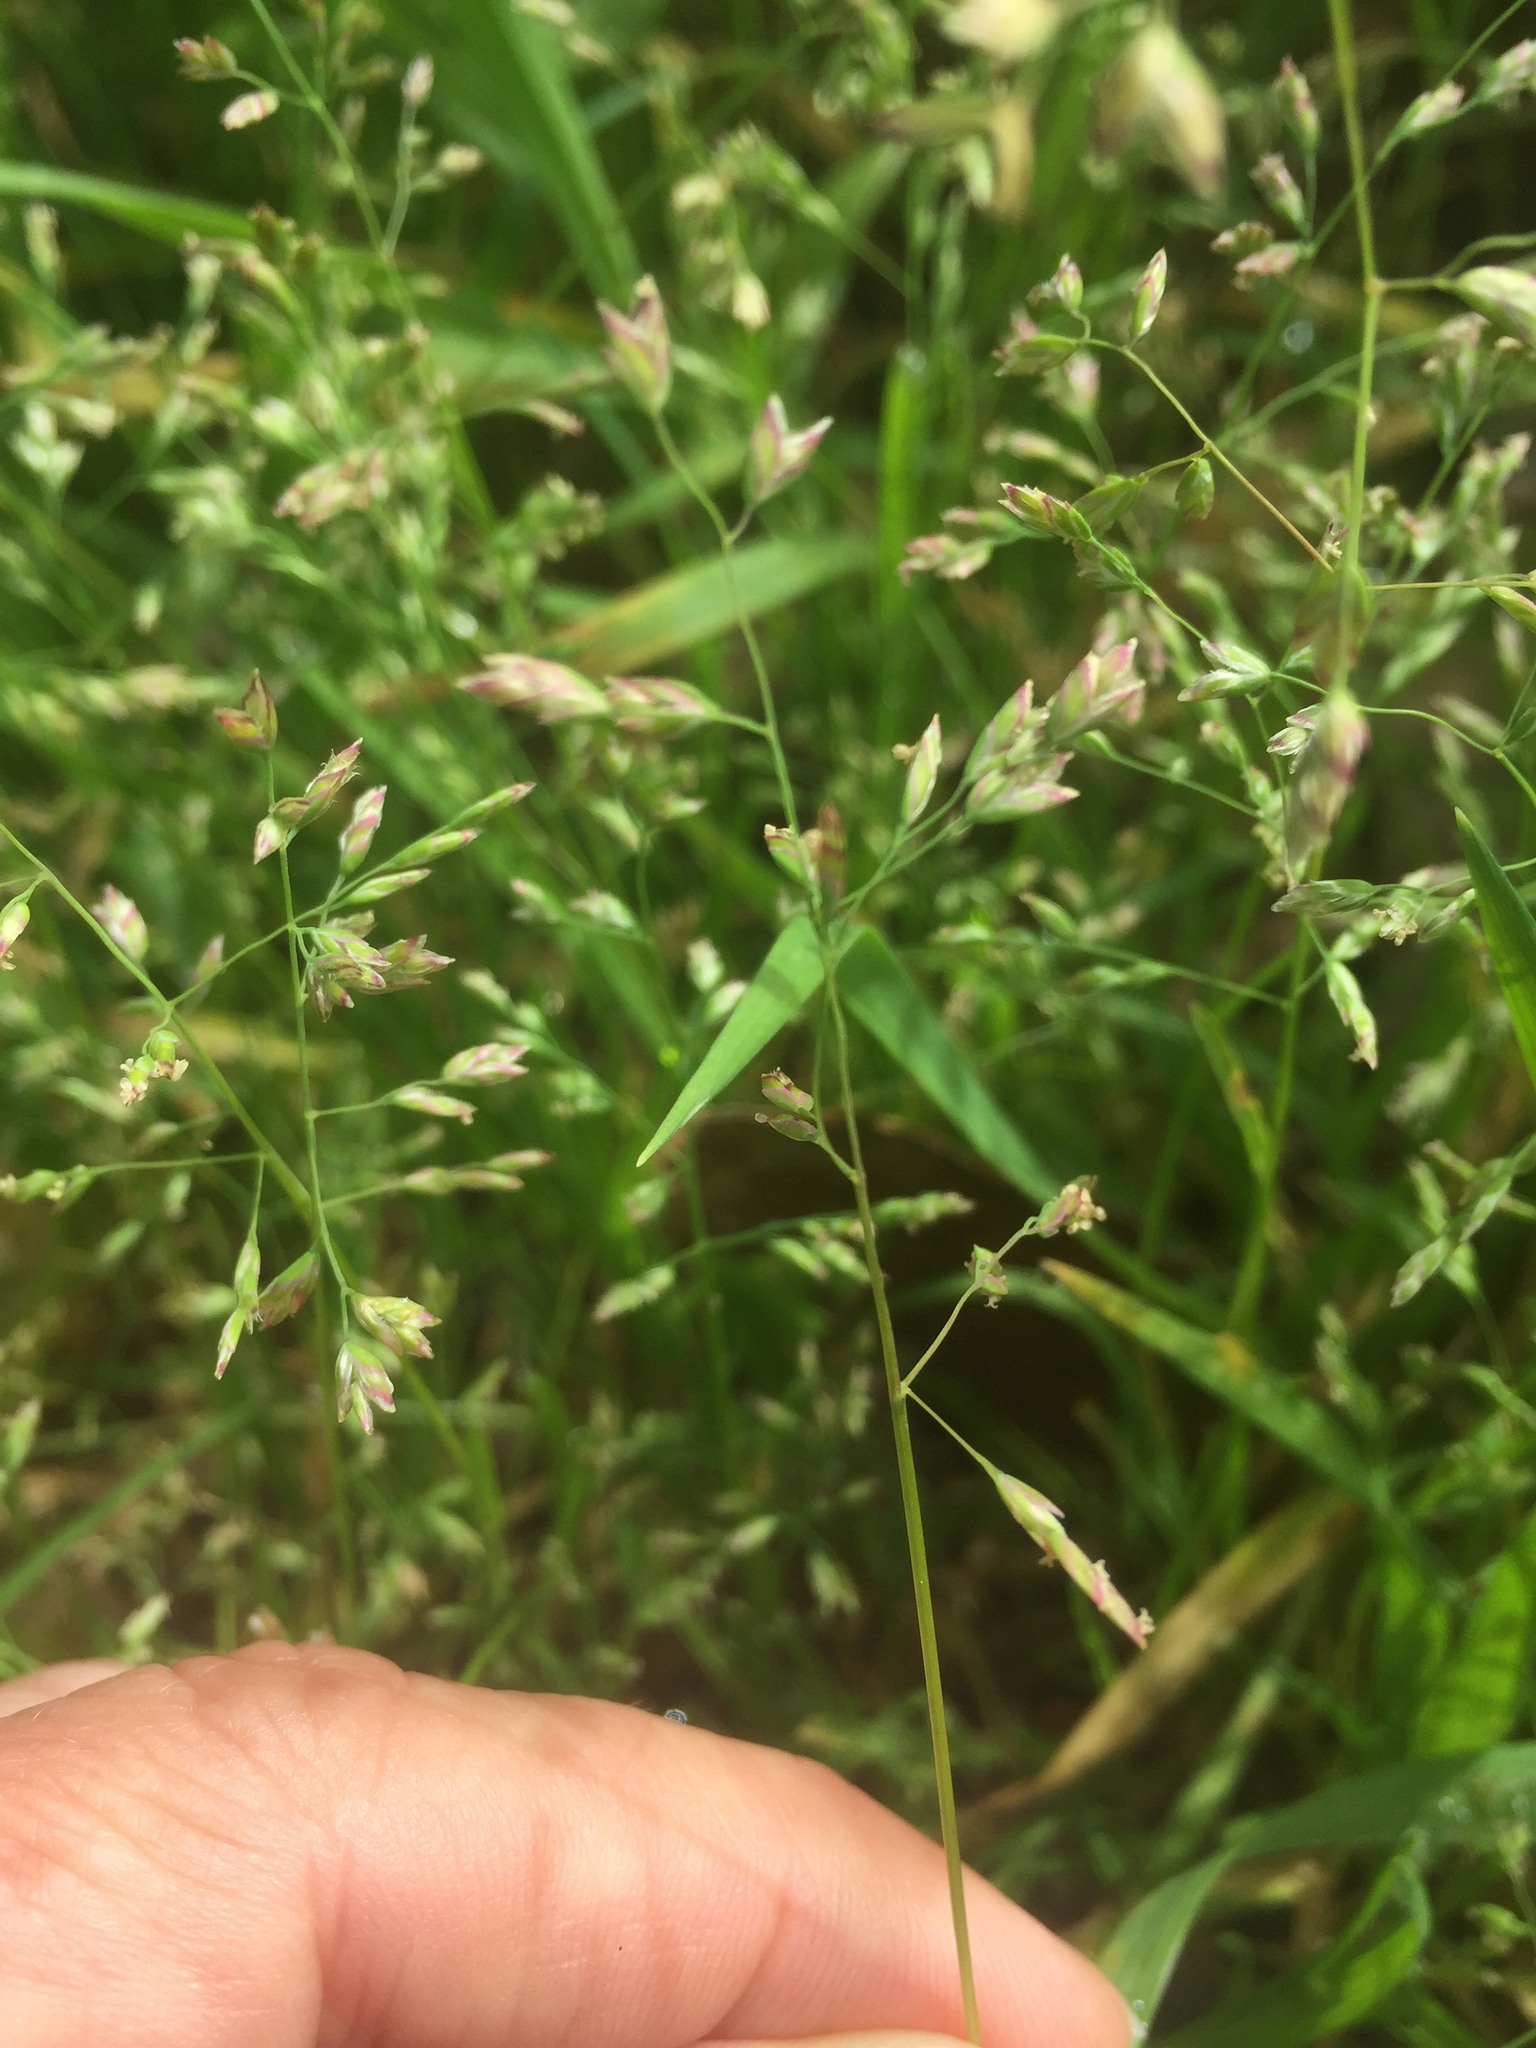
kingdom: Plantae
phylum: Tracheophyta
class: Liliopsida
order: Poales
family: Poaceae
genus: Poa
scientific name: Poa annua
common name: Annual bluegrass
